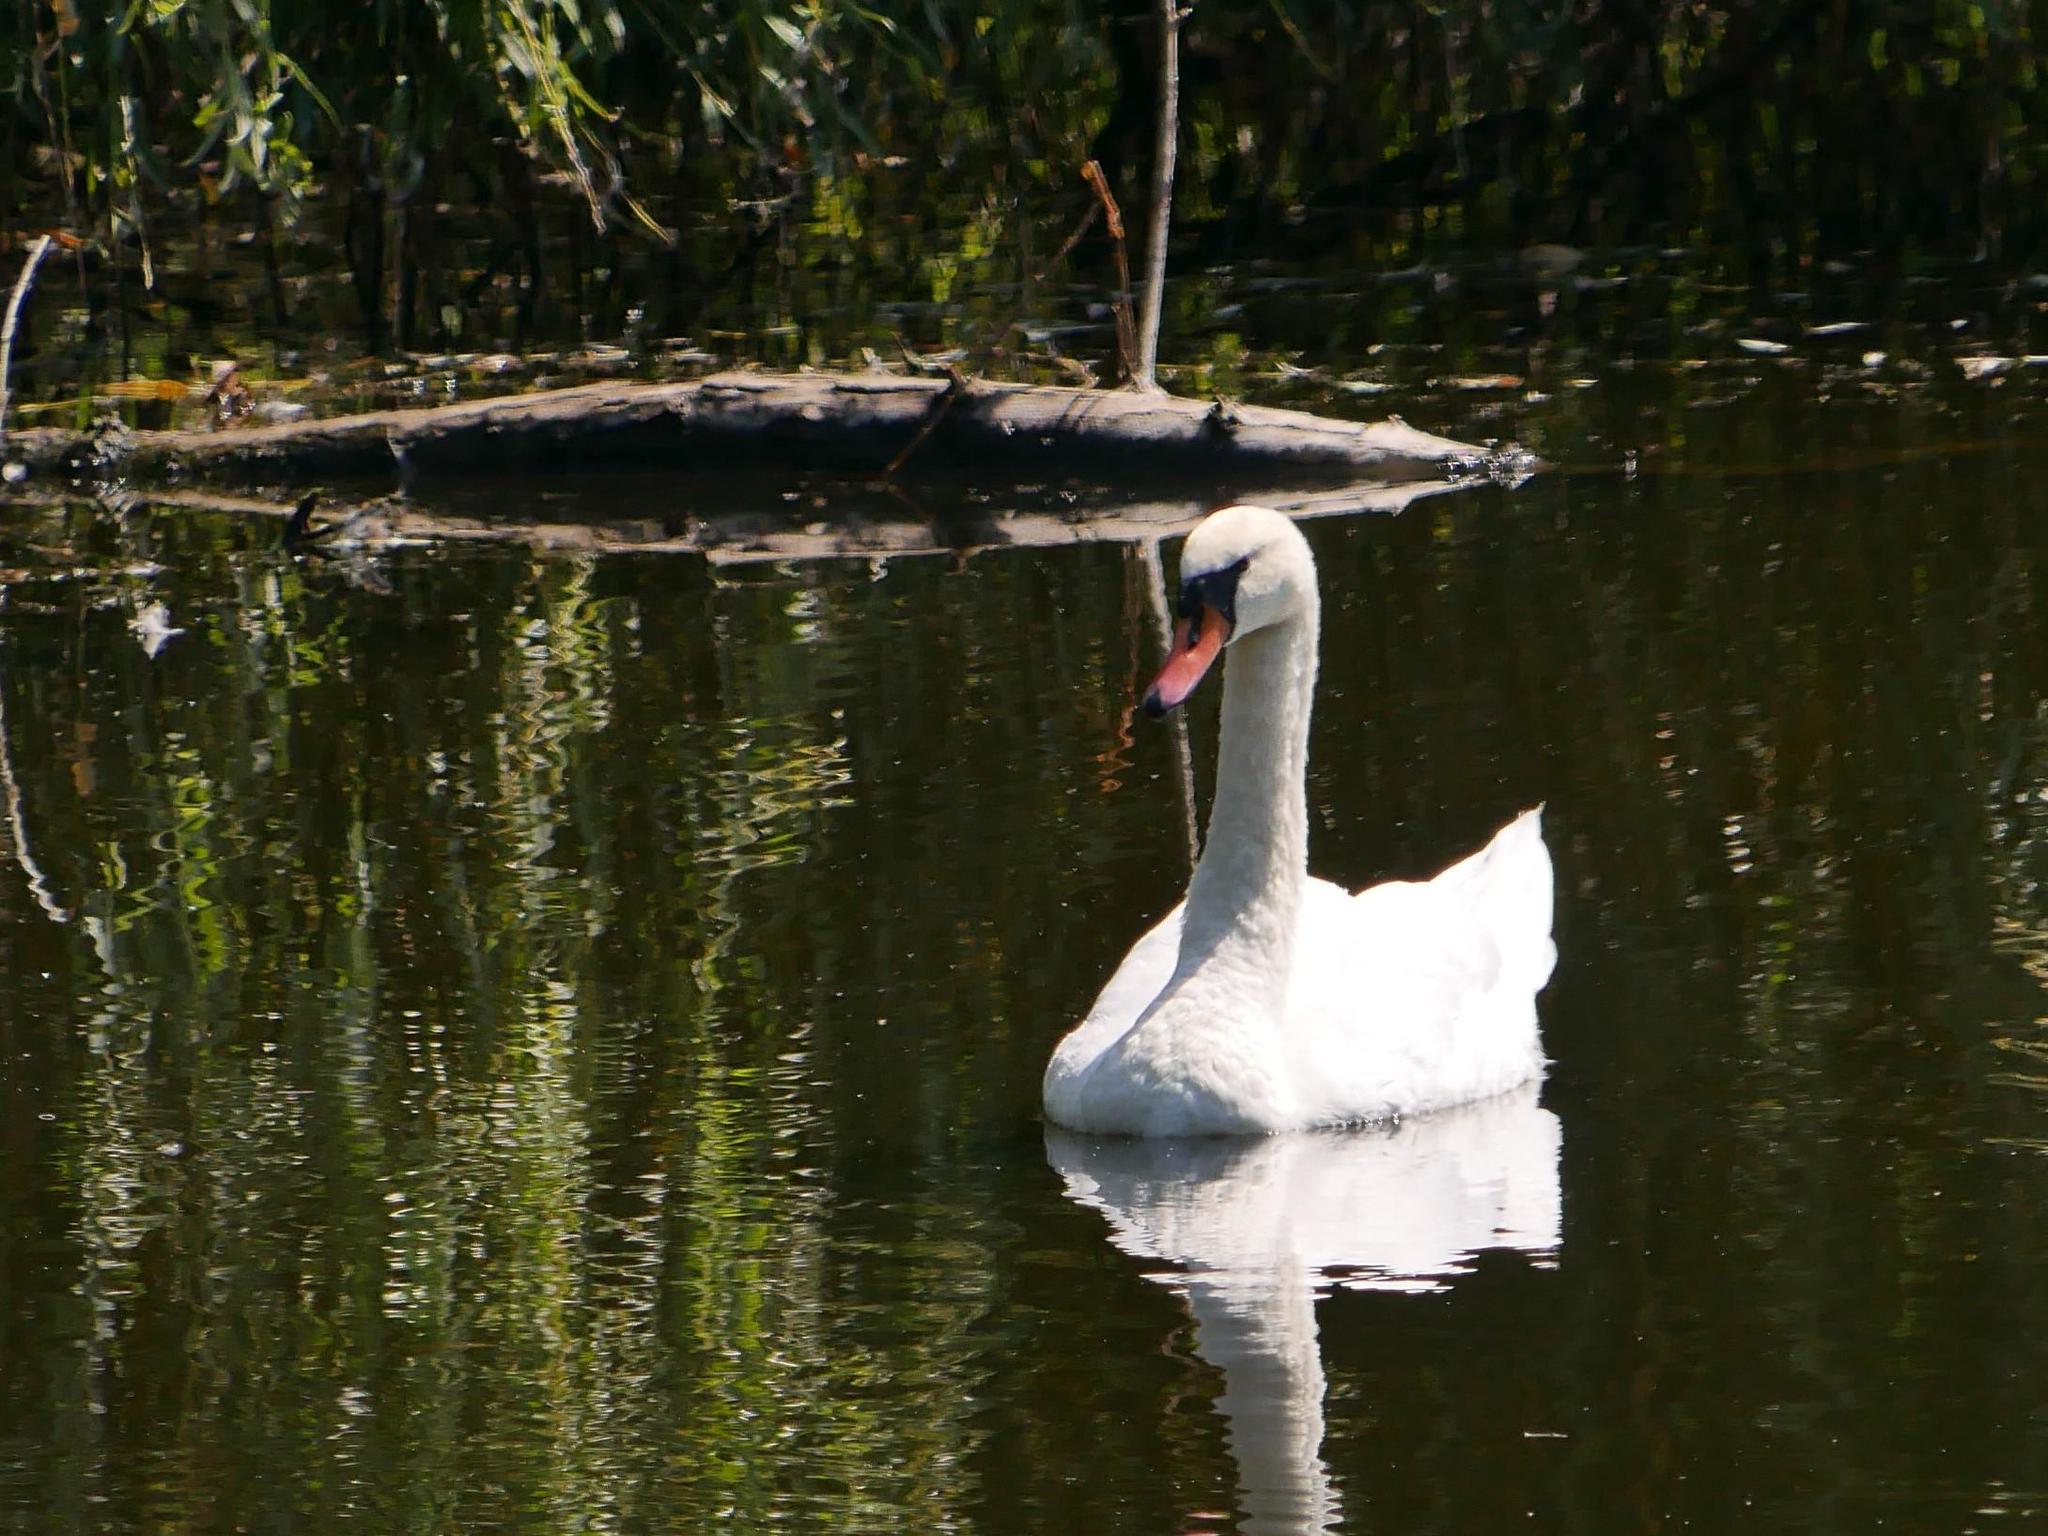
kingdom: Animalia
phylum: Chordata
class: Aves
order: Anseriformes
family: Anatidae
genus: Cygnus
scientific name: Cygnus olor
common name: Mute swan
